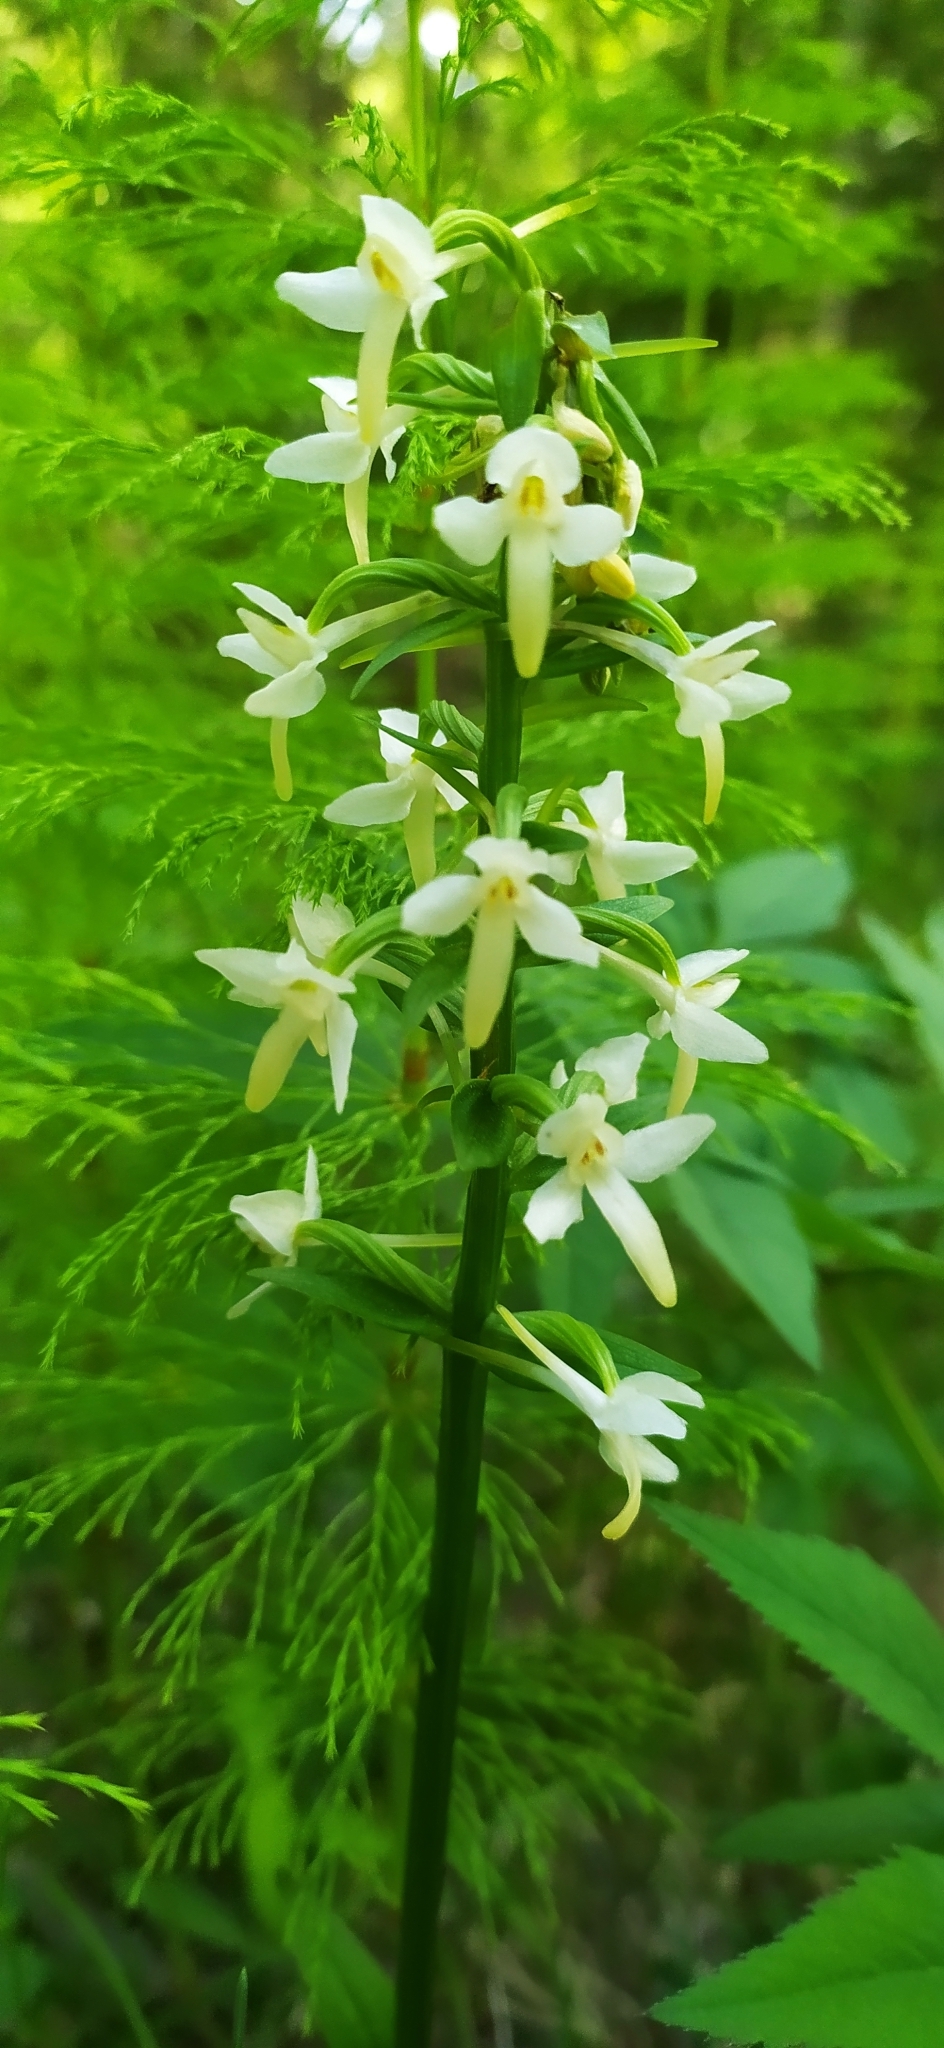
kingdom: Plantae
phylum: Tracheophyta
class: Liliopsida
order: Asparagales
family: Orchidaceae
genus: Platanthera
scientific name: Platanthera bifolia
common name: Lesser butterfly-orchid
